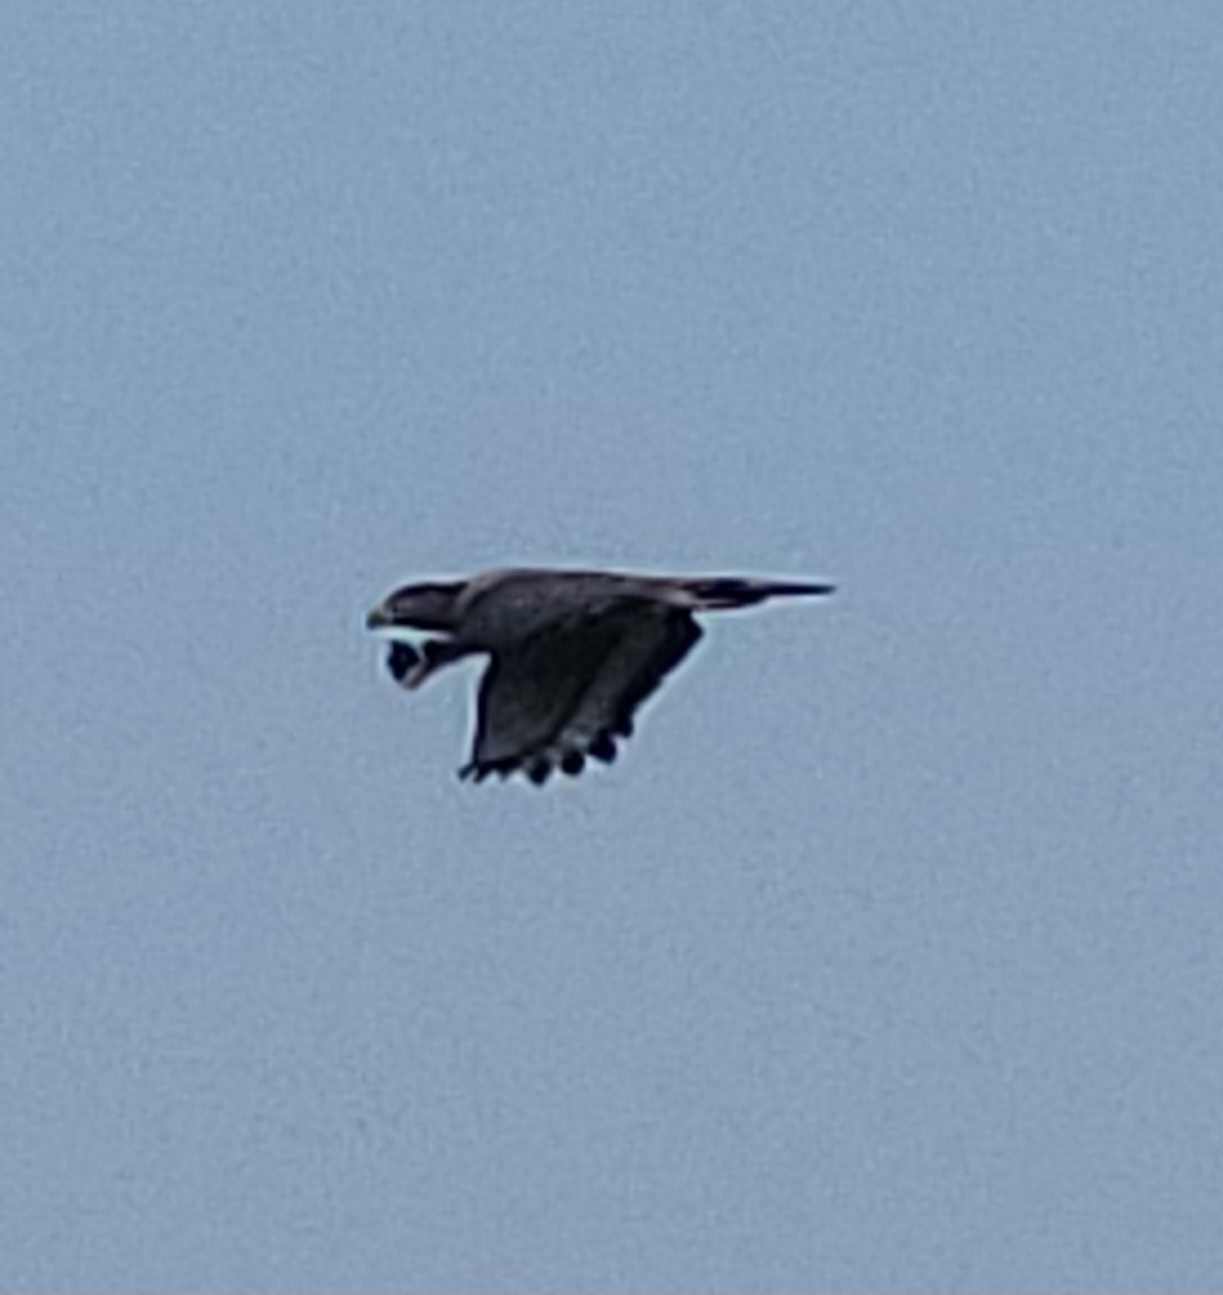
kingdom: Animalia
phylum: Chordata
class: Aves
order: Accipitriformes
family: Accipitridae
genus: Spilornis
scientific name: Spilornis cheela
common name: Crested serpent eagle
